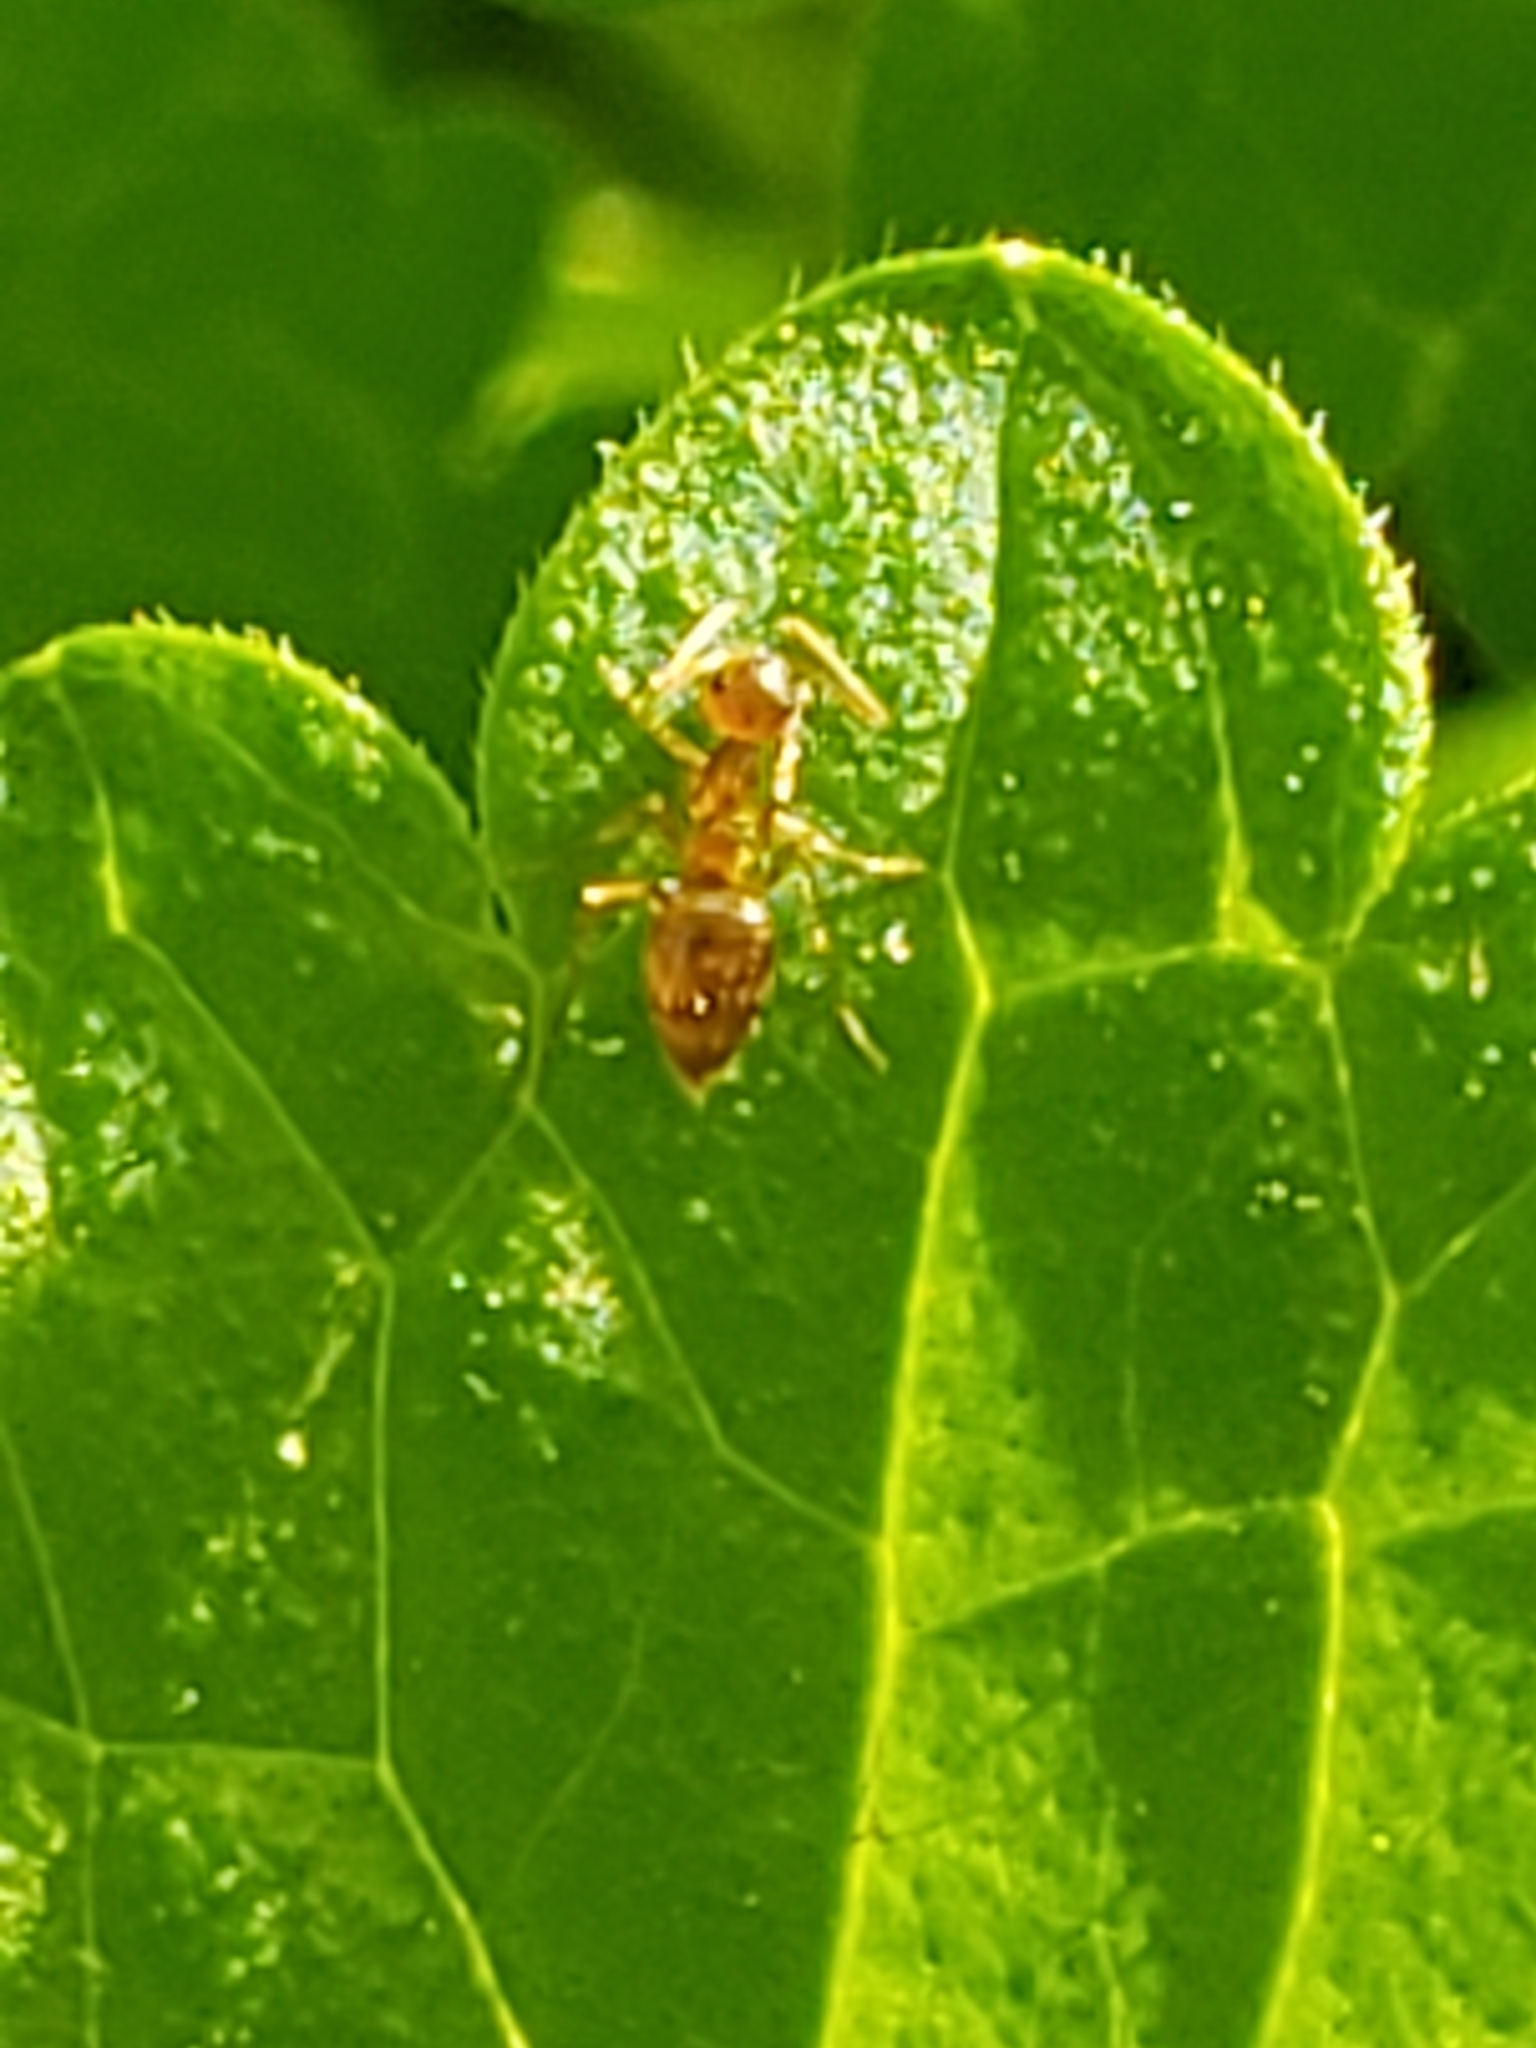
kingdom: Animalia
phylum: Arthropoda
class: Insecta
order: Hymenoptera
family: Formicidae
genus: Prenolepis
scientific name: Prenolepis imparis
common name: Small honey ant
